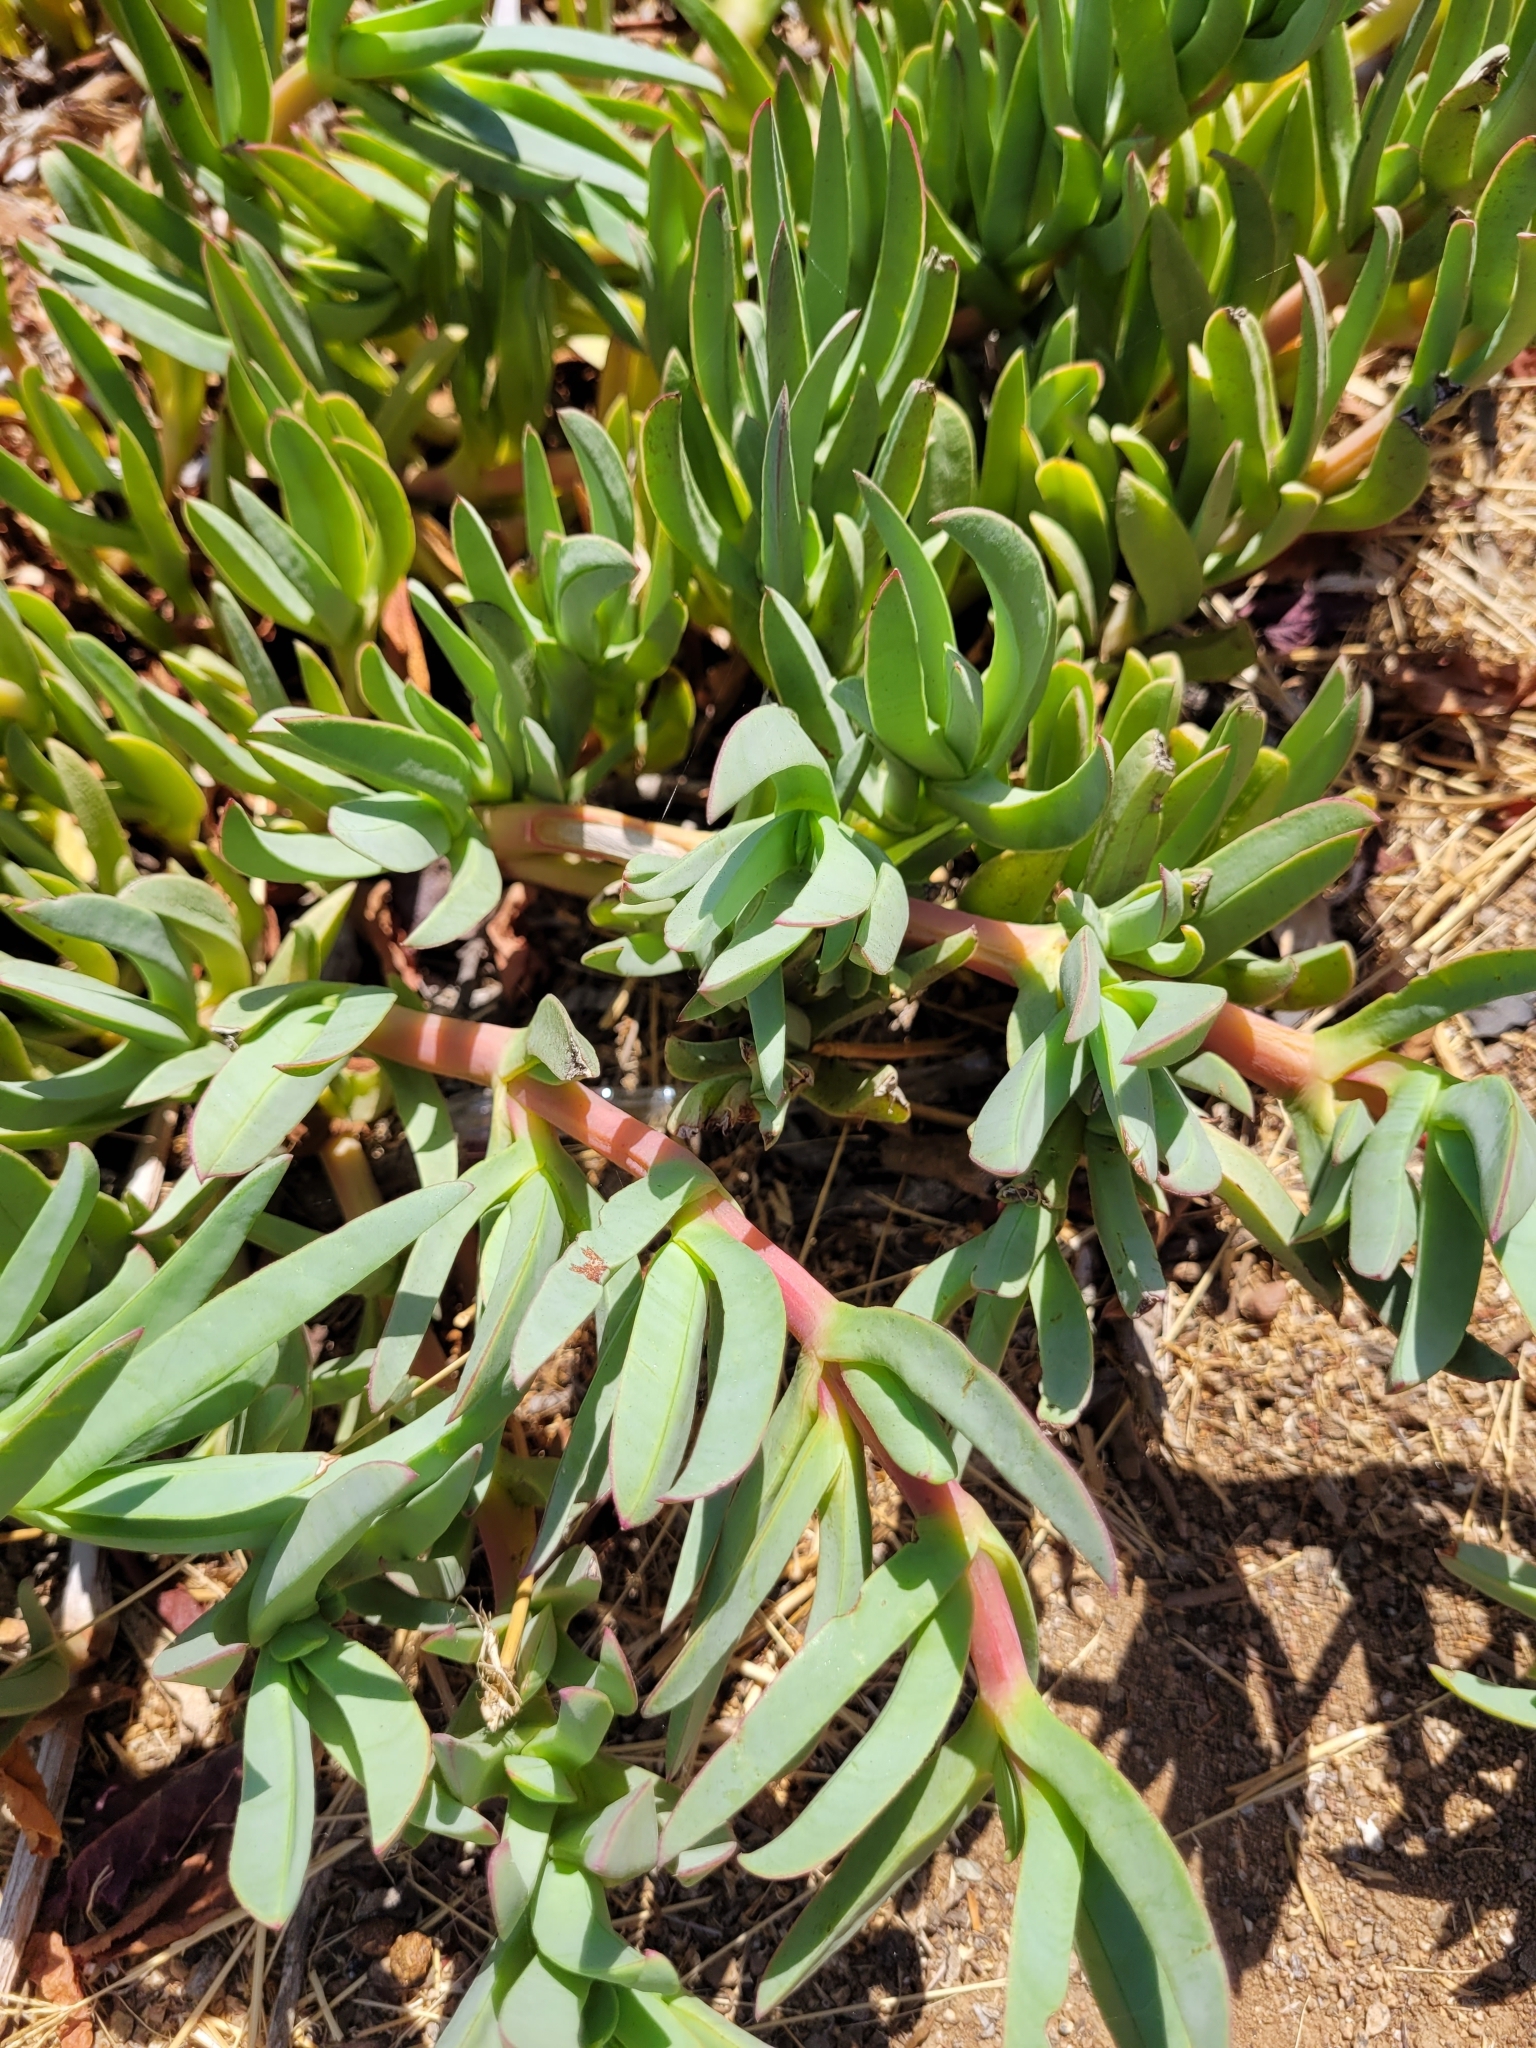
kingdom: Plantae
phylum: Tracheophyta
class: Magnoliopsida
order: Caryophyllales
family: Aizoaceae
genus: Carpobrotus
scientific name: Carpobrotus chilensis
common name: Sea fig
